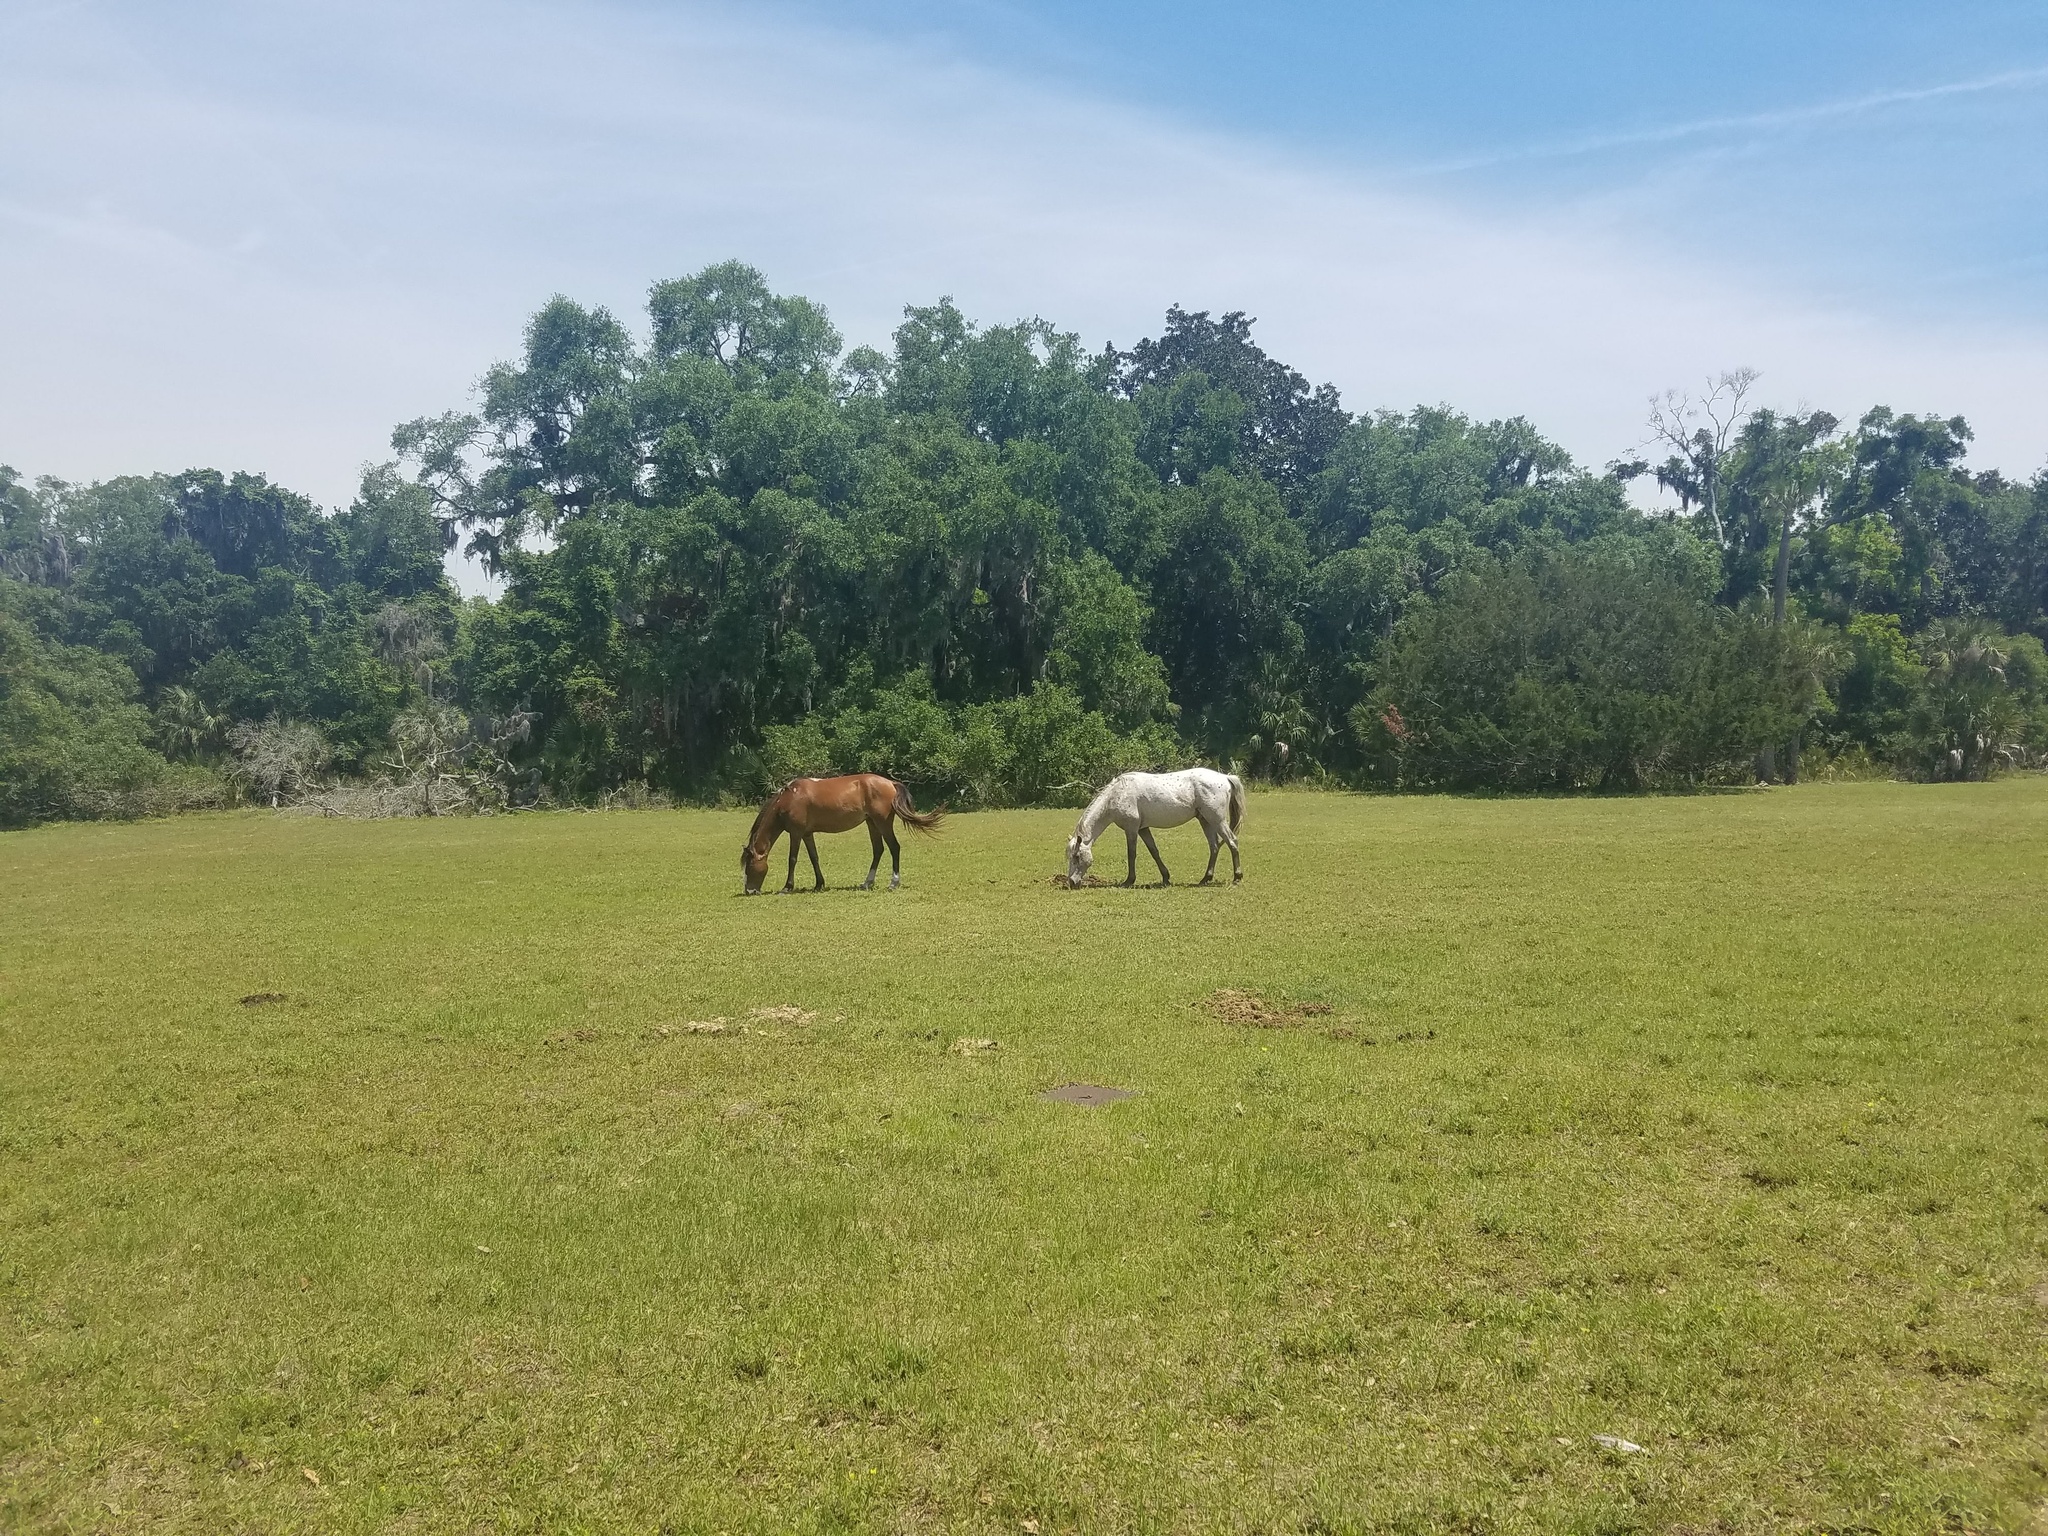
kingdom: Animalia
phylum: Chordata
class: Mammalia
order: Perissodactyla
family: Equidae
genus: Equus
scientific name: Equus caballus
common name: Horse
